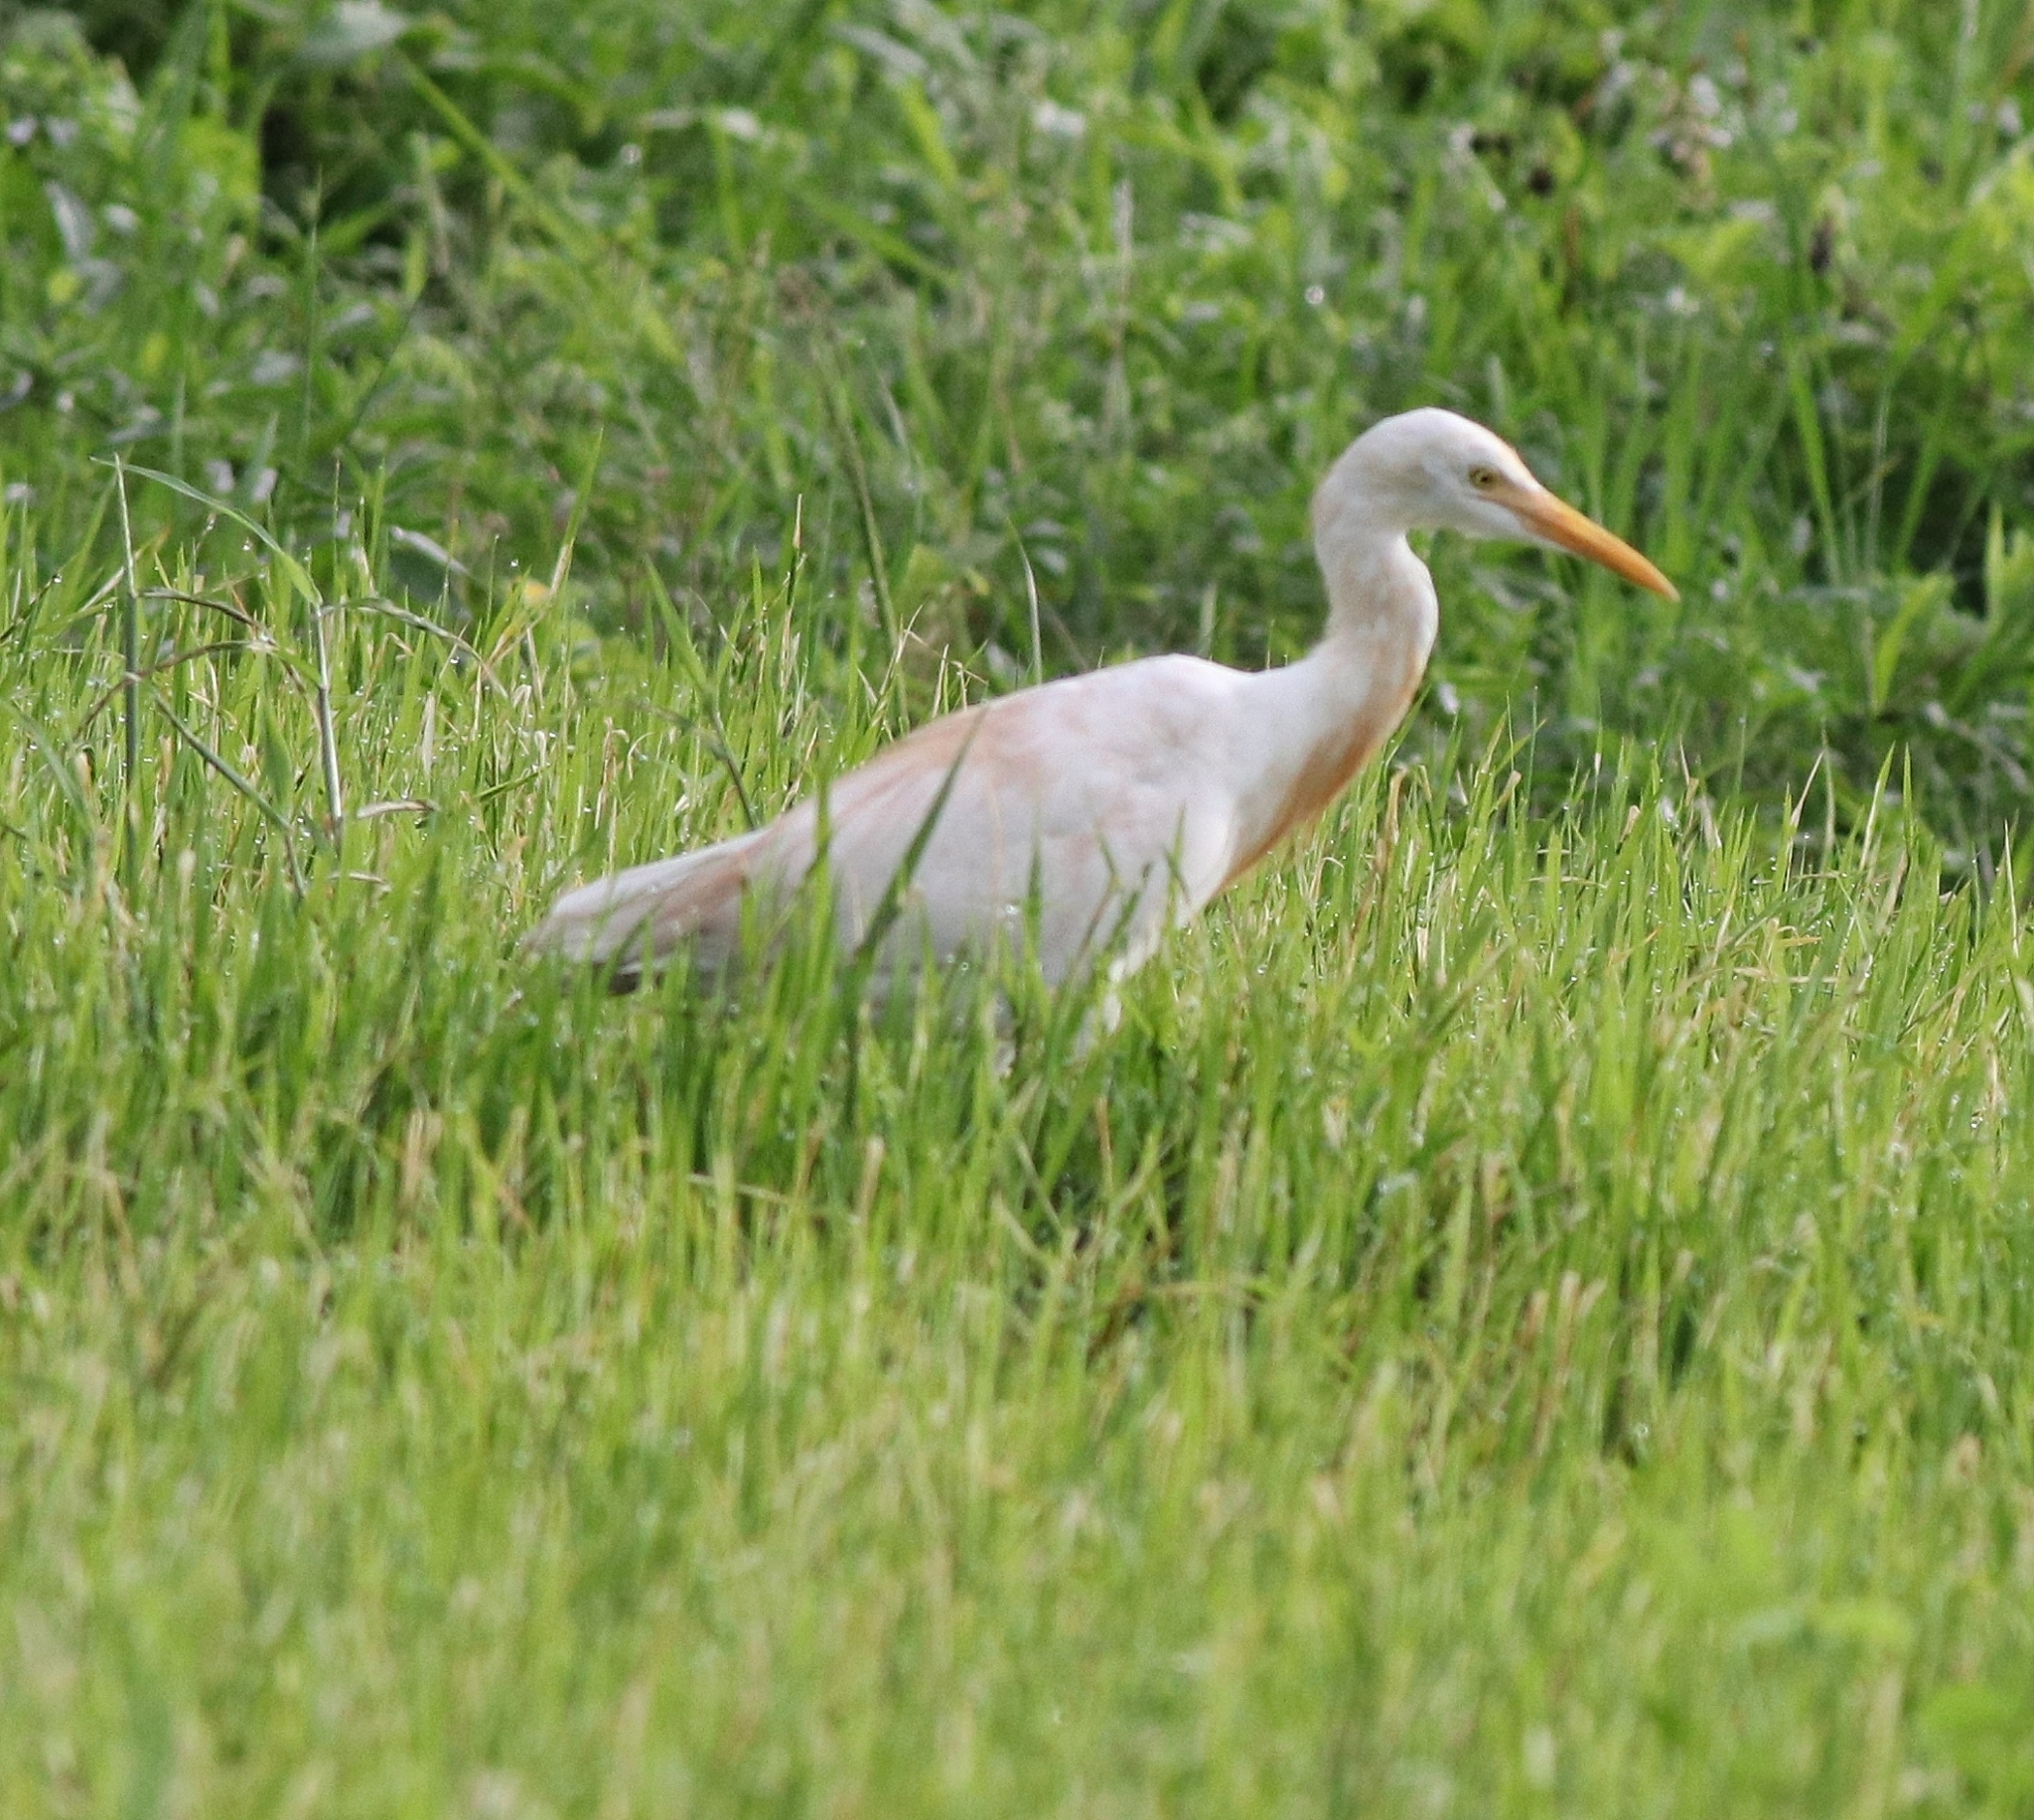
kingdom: Animalia
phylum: Chordata
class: Aves
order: Pelecaniformes
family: Ardeidae
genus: Bubulcus
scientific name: Bubulcus coromandus
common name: Eastern cattle egret
